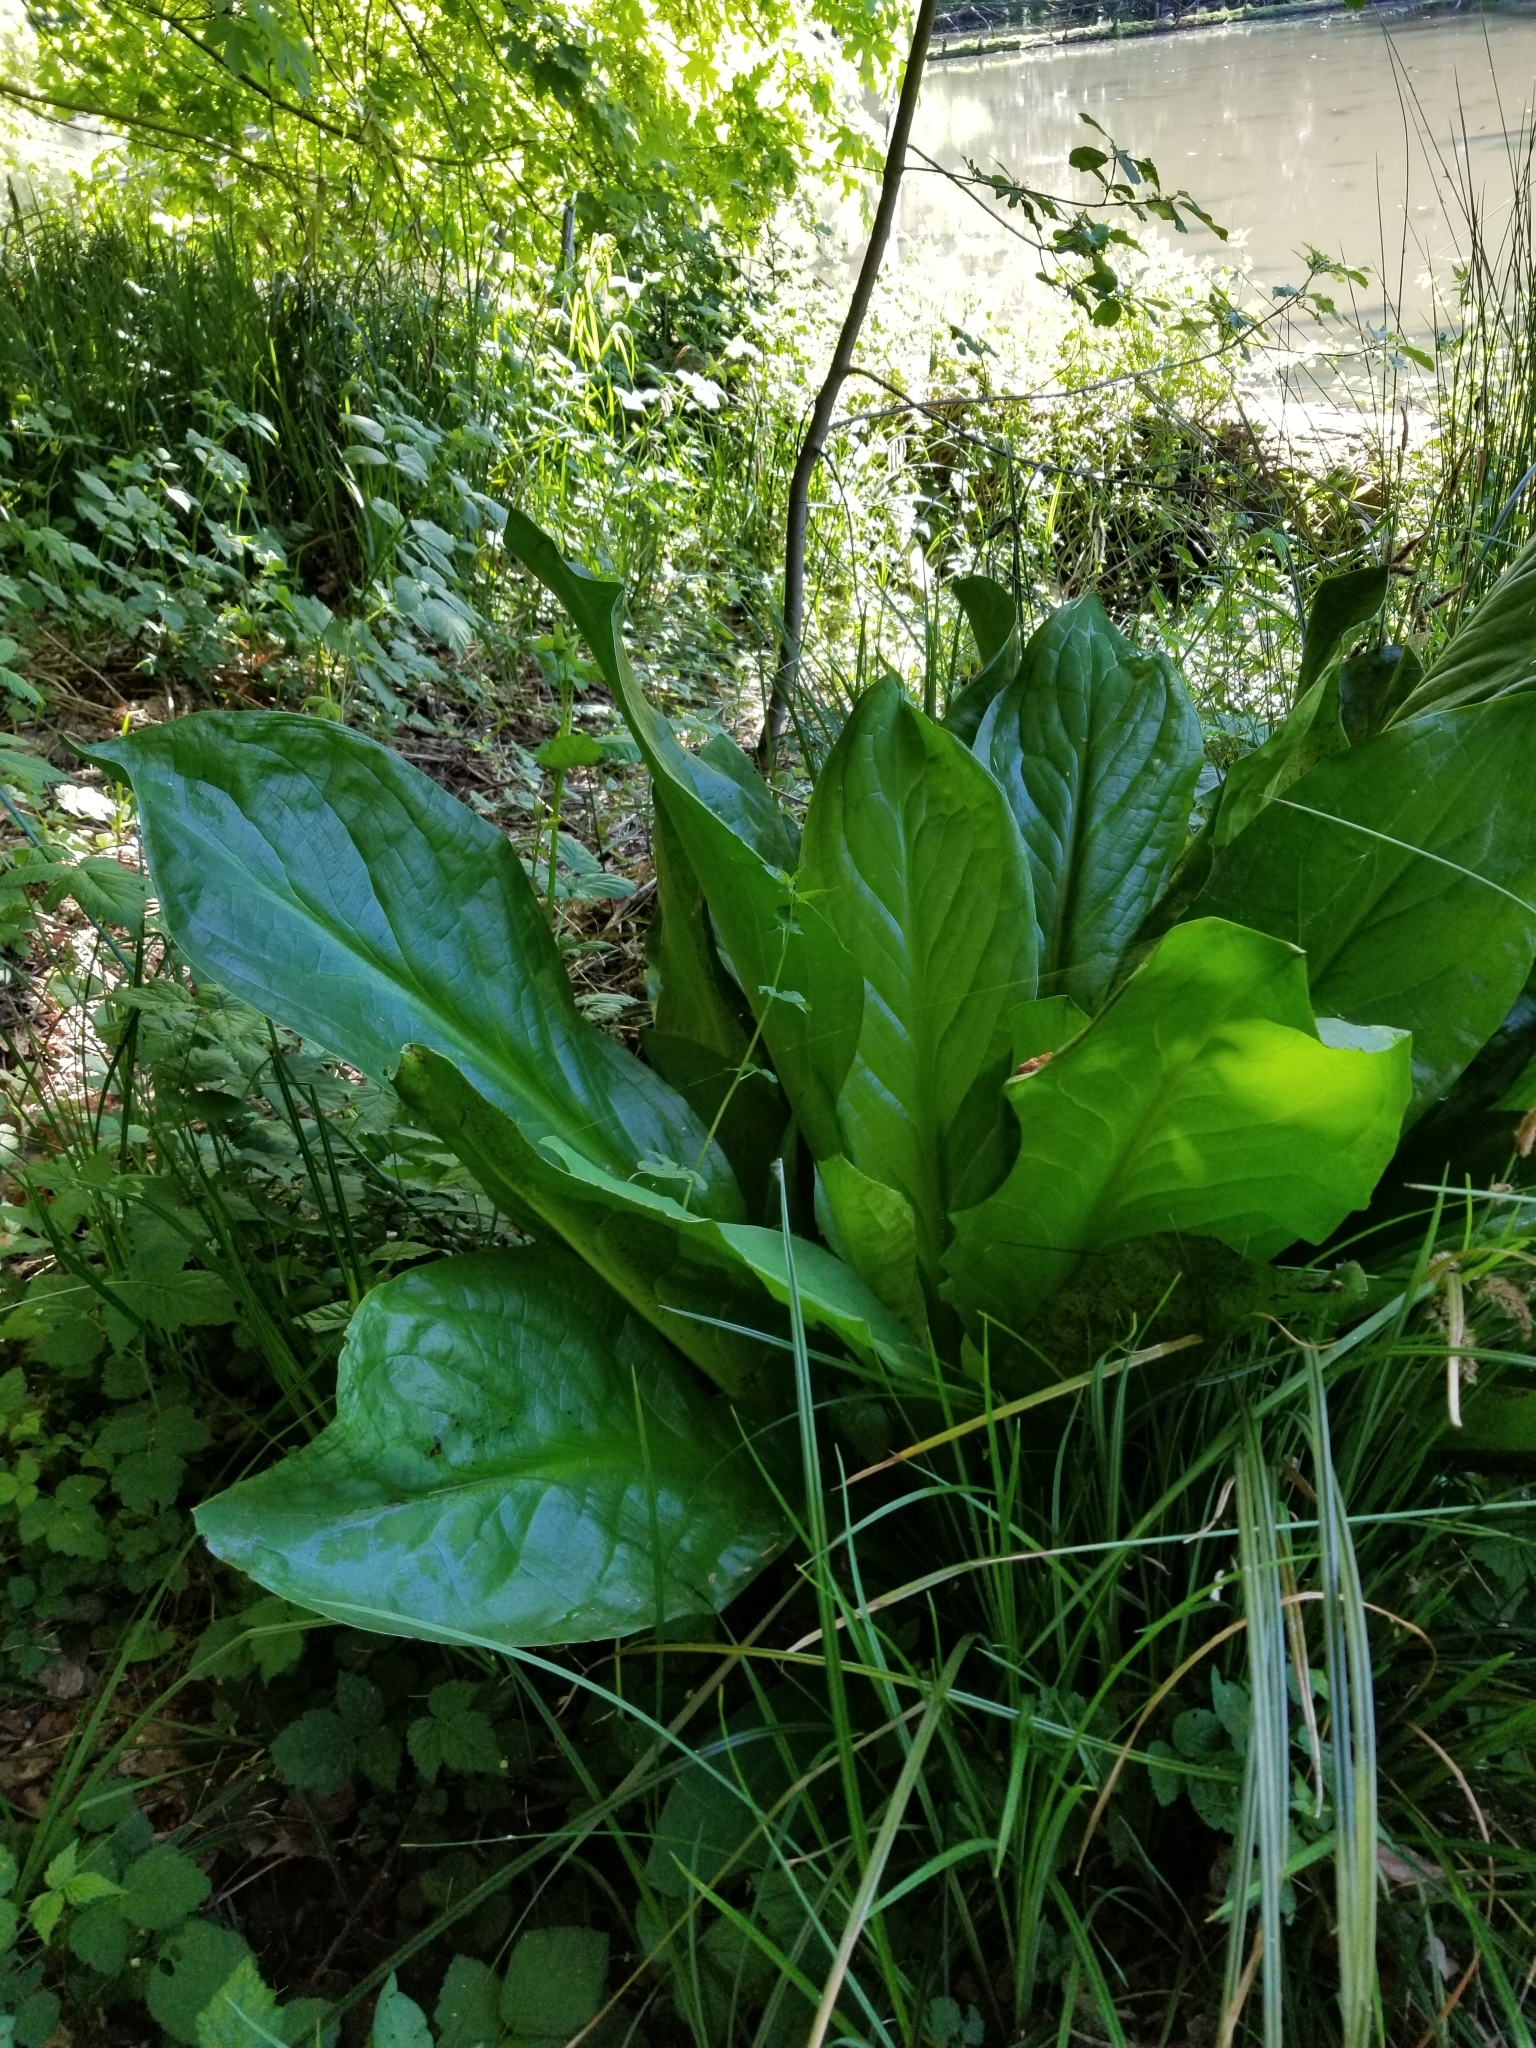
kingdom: Plantae
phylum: Tracheophyta
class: Liliopsida
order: Alismatales
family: Araceae
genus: Lysichiton
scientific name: Lysichiton americanus
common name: American skunk cabbage
